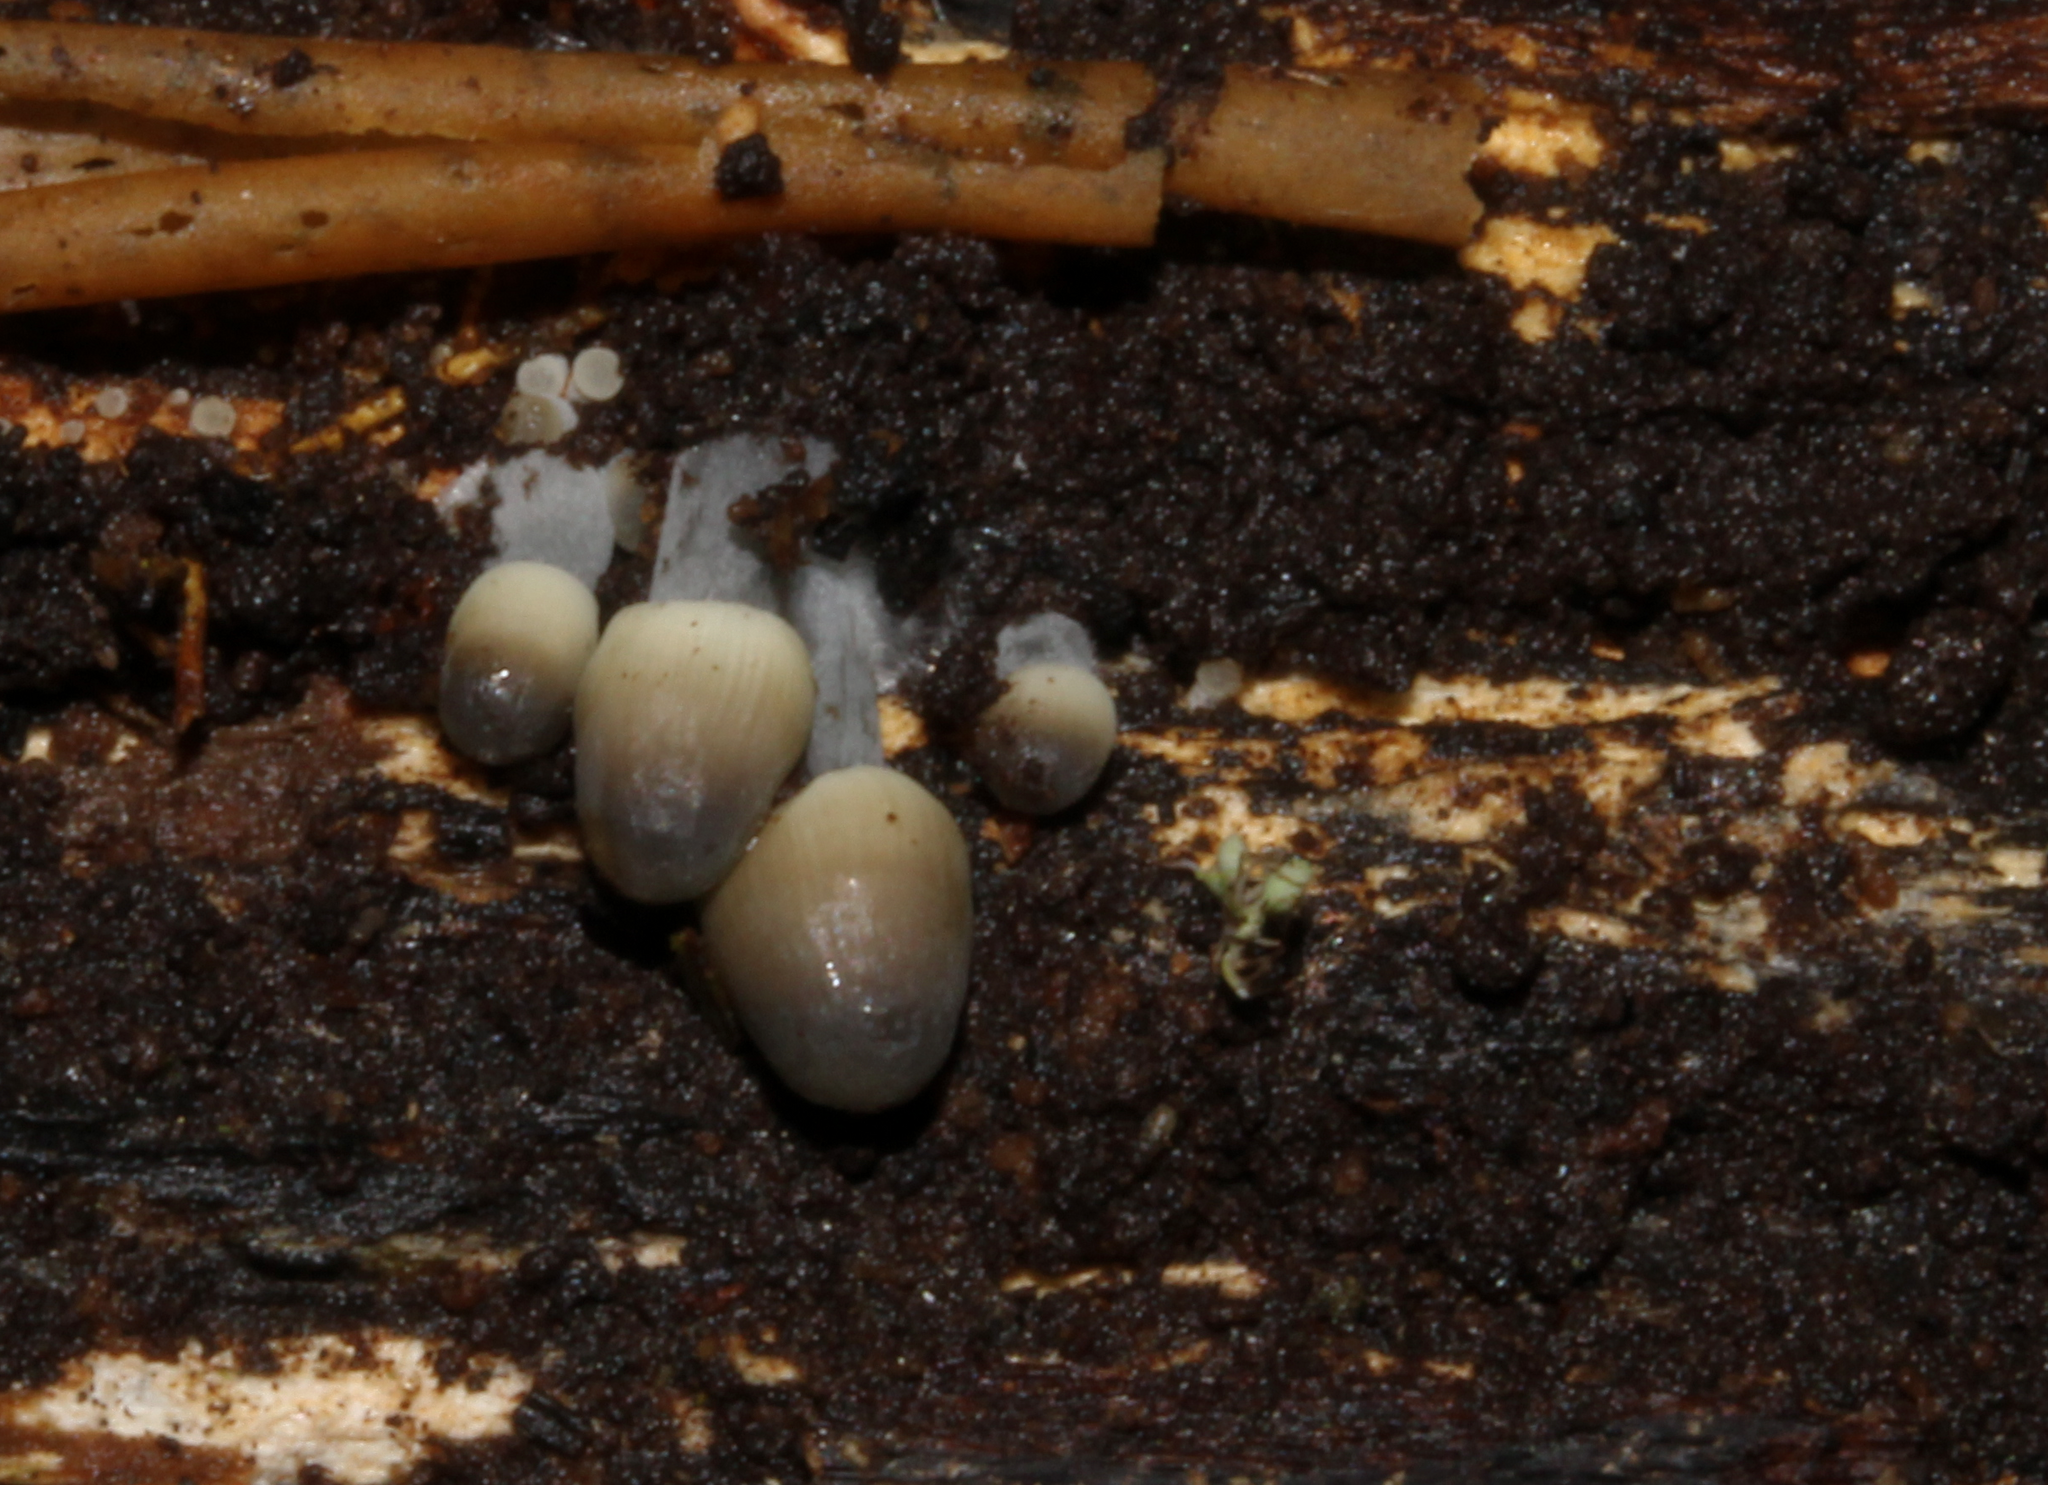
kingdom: Fungi
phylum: Basidiomycota
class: Agaricomycetes
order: Agaricales
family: Mycenaceae
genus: Mycena
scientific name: Mycena arcangeliana
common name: Angel's bonnet
